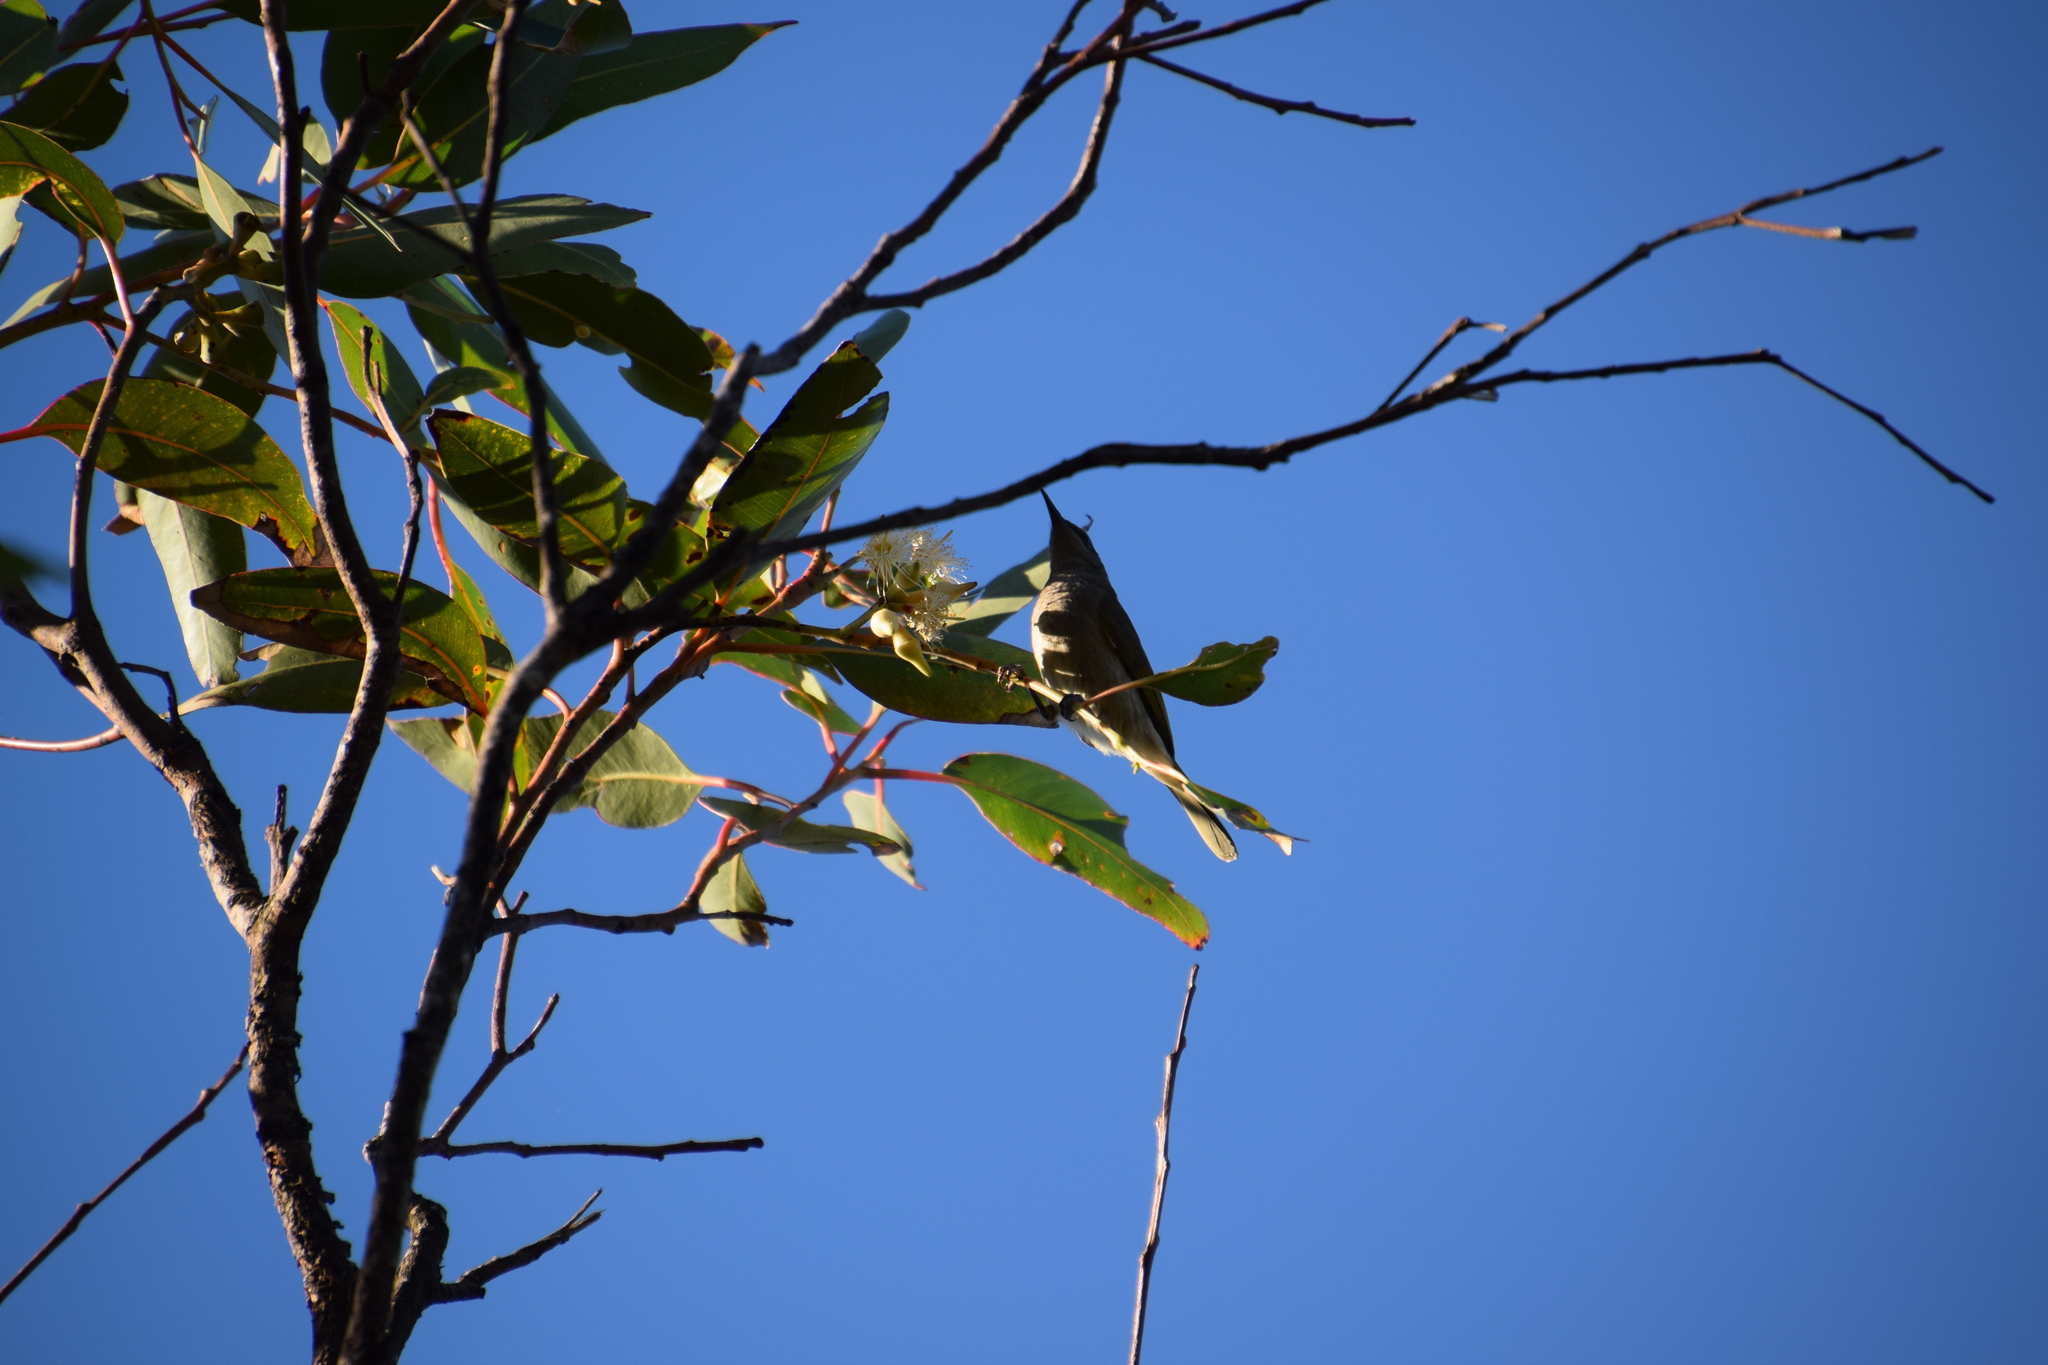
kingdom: Animalia
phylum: Chordata
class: Aves
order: Passeriformes
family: Meliphagidae
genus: Lichmera
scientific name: Lichmera indistincta
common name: Brown honeyeater
